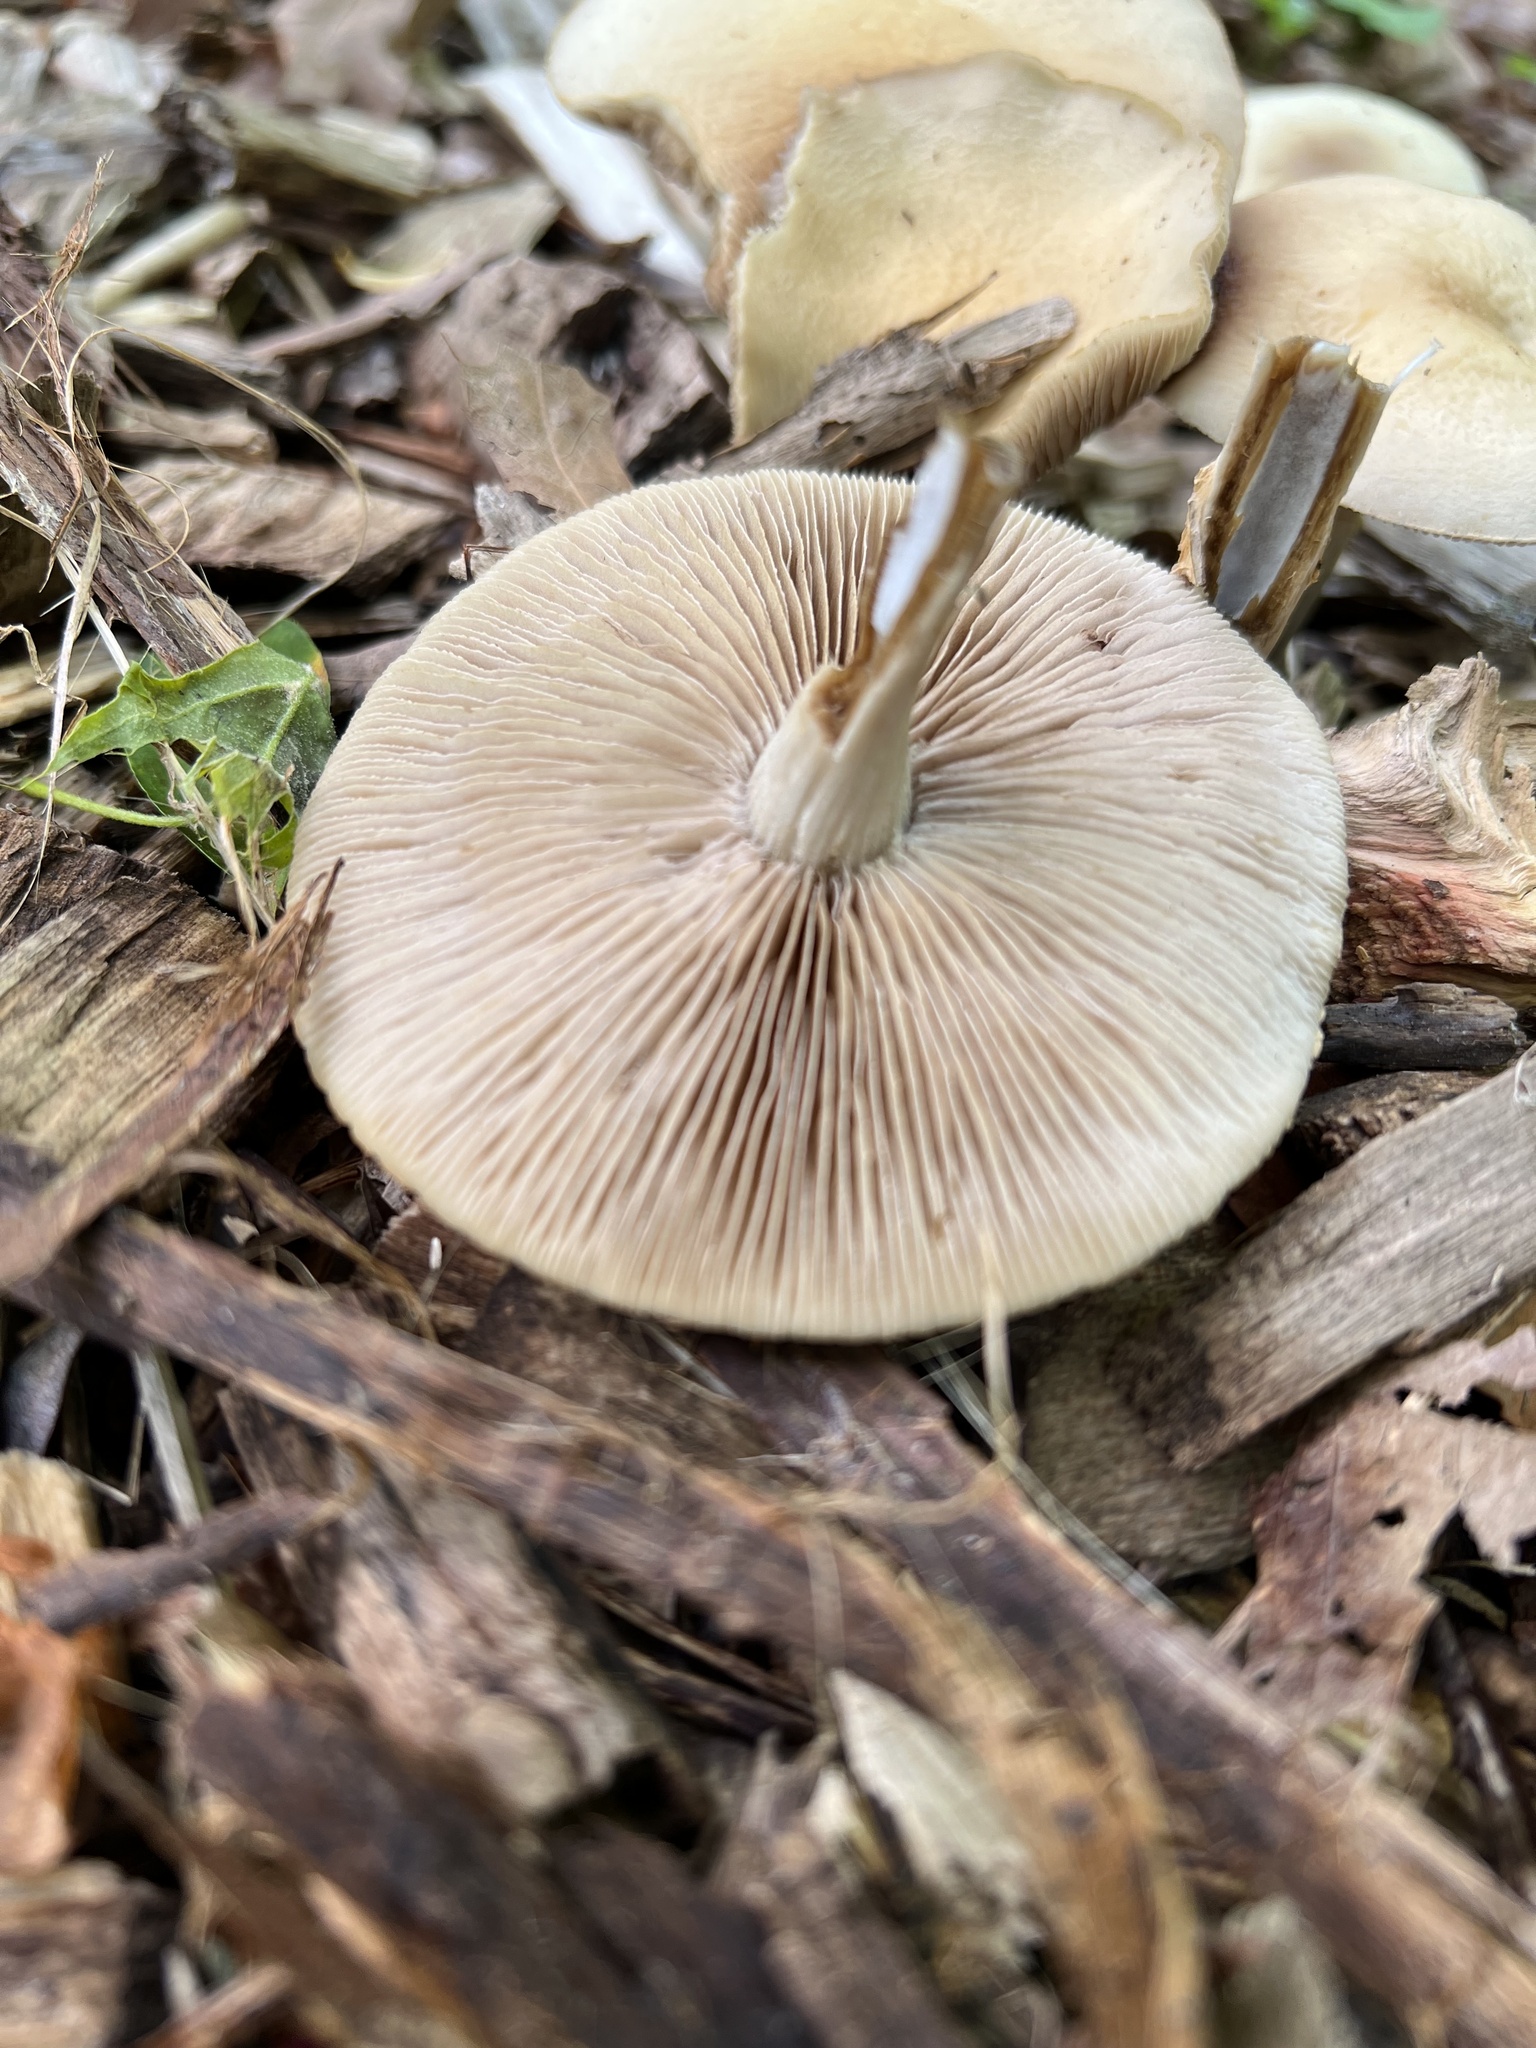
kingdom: Fungi
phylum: Basidiomycota
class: Agaricomycetes
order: Agaricales
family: Strophariaceae
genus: Agrocybe
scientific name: Agrocybe praecox
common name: Spring fieldcap
